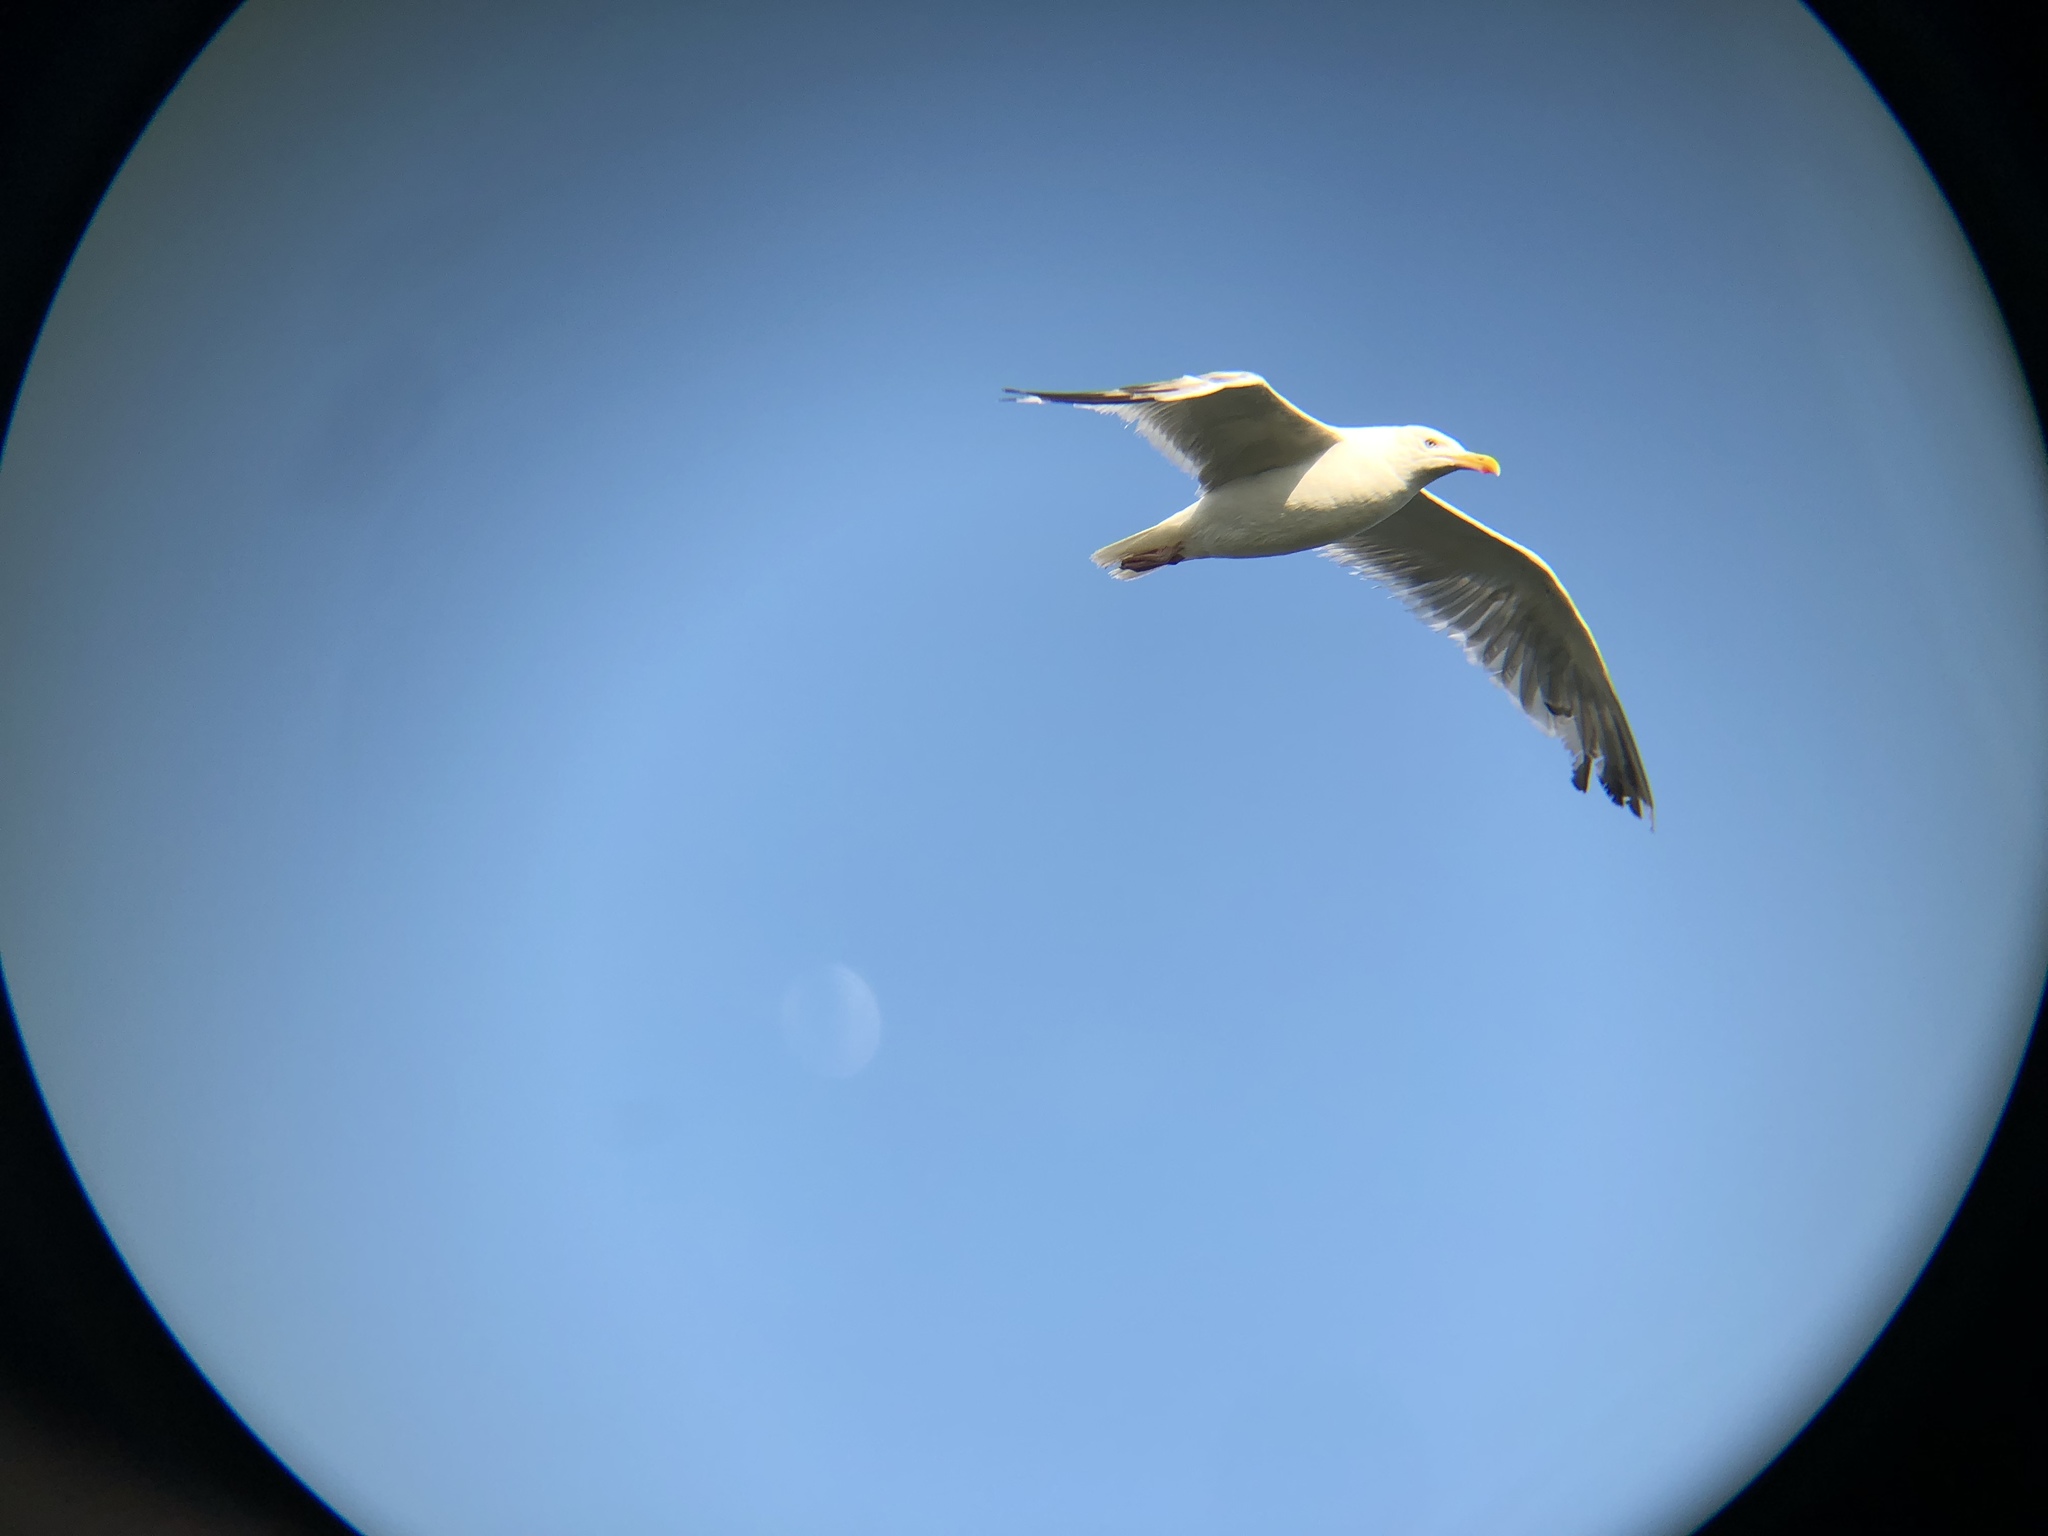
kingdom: Animalia
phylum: Chordata
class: Aves
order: Charadriiformes
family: Laridae
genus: Larus
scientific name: Larus argentatus
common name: Herring gull
